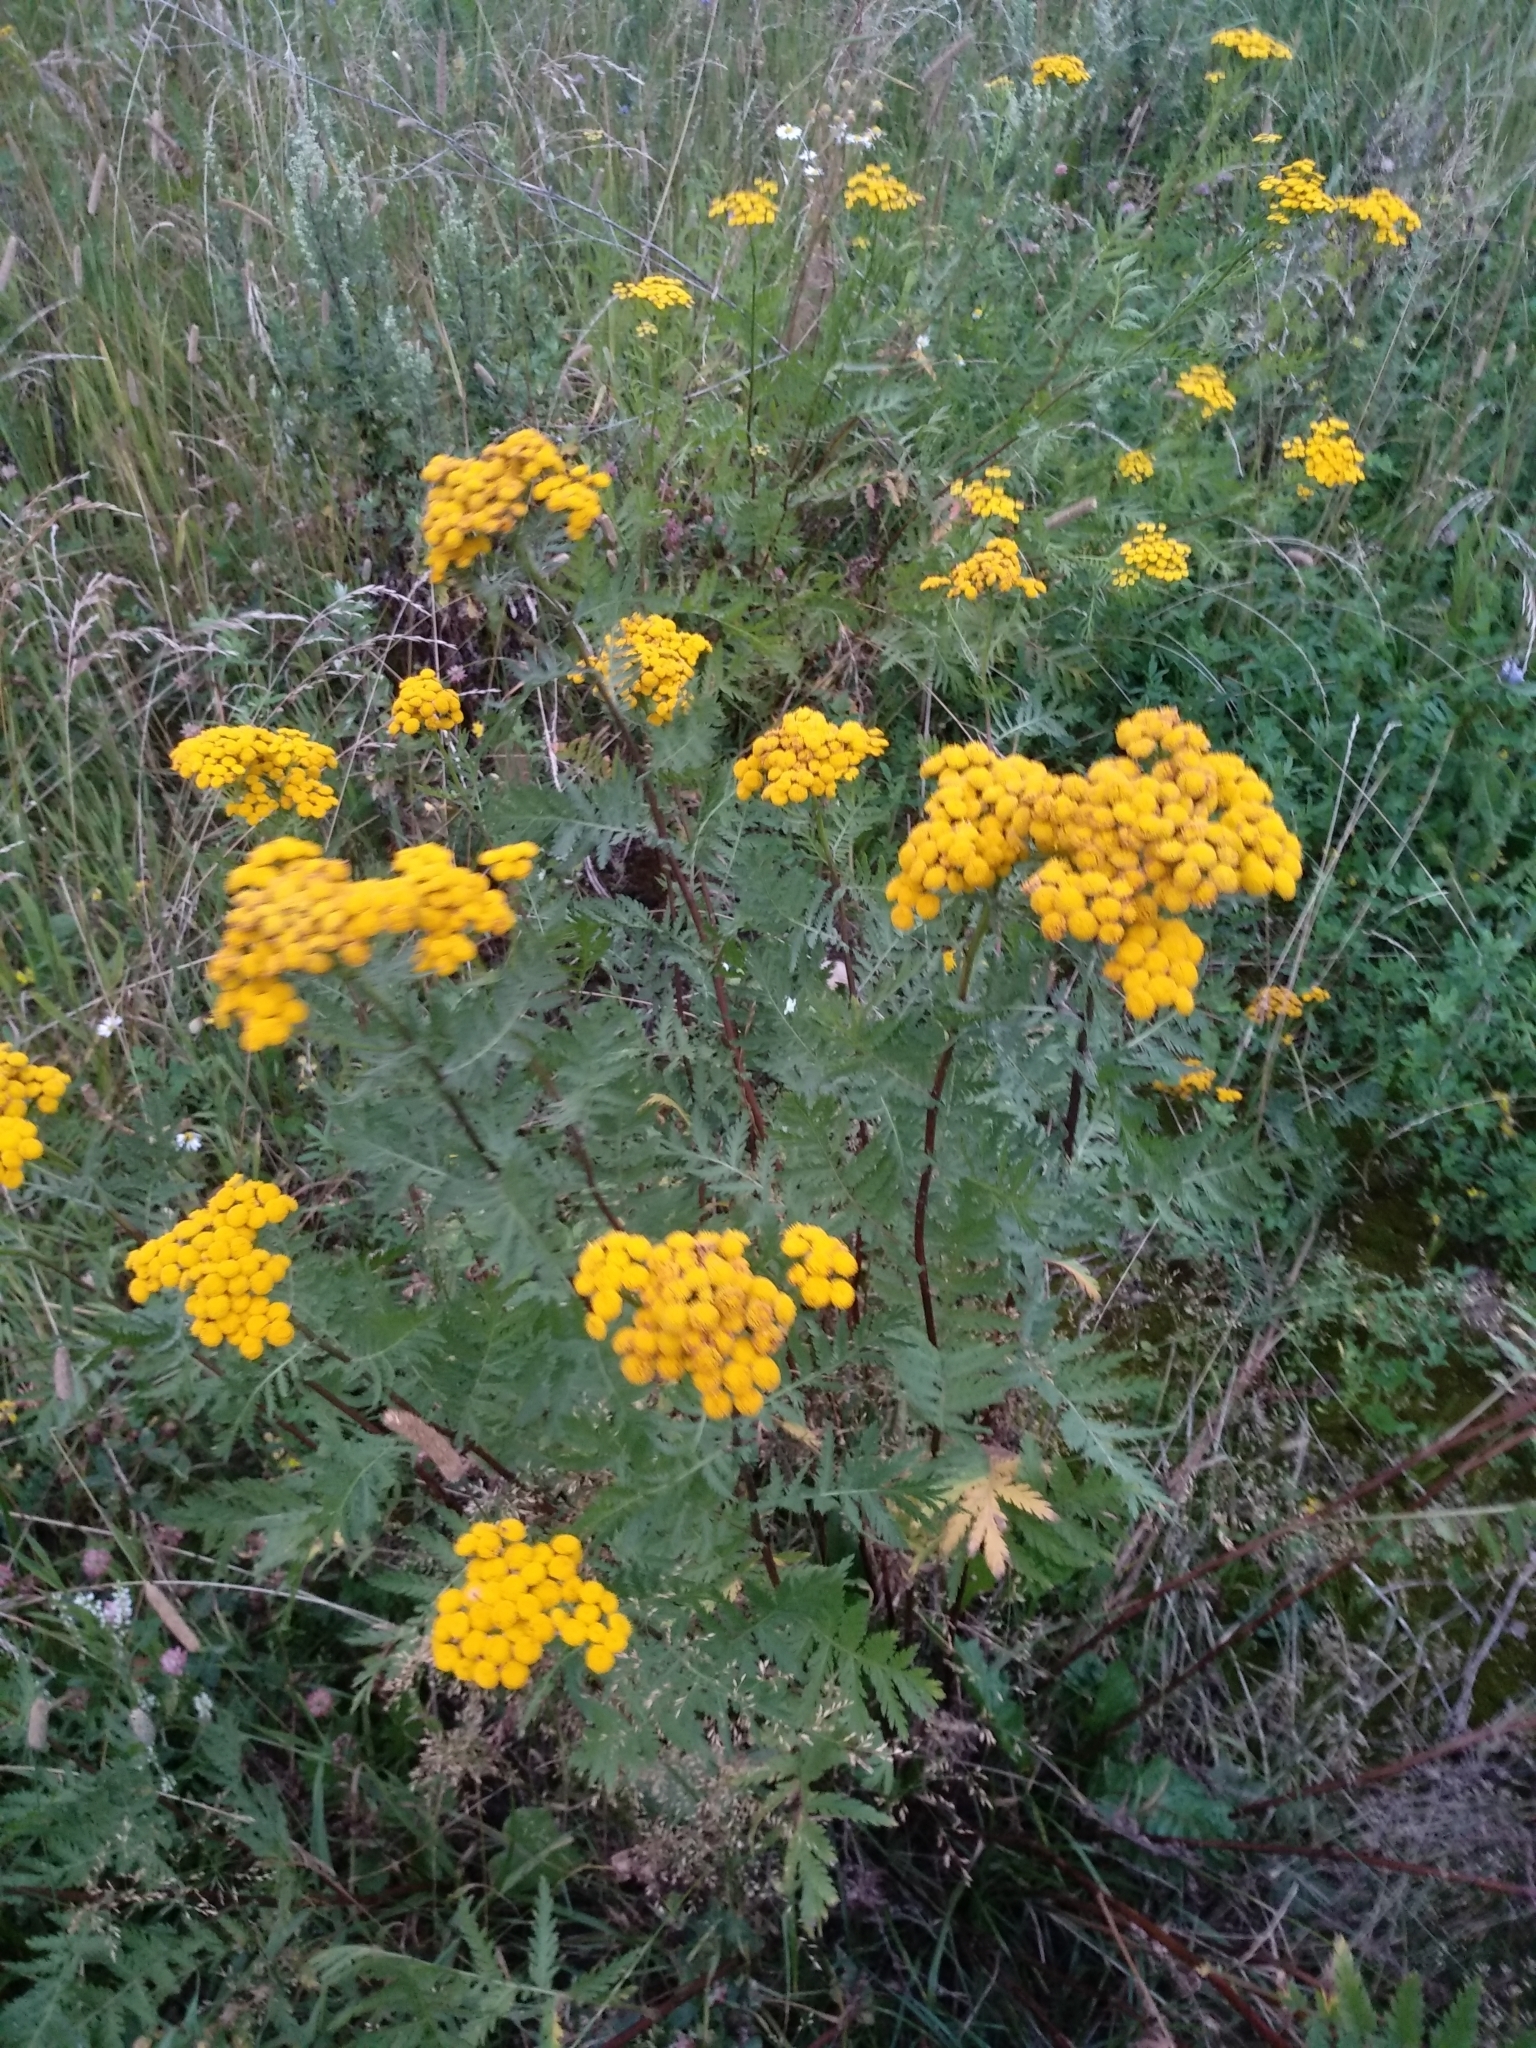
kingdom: Plantae
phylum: Tracheophyta
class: Magnoliopsida
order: Asterales
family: Asteraceae
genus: Tanacetum
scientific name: Tanacetum vulgare
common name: Common tansy
